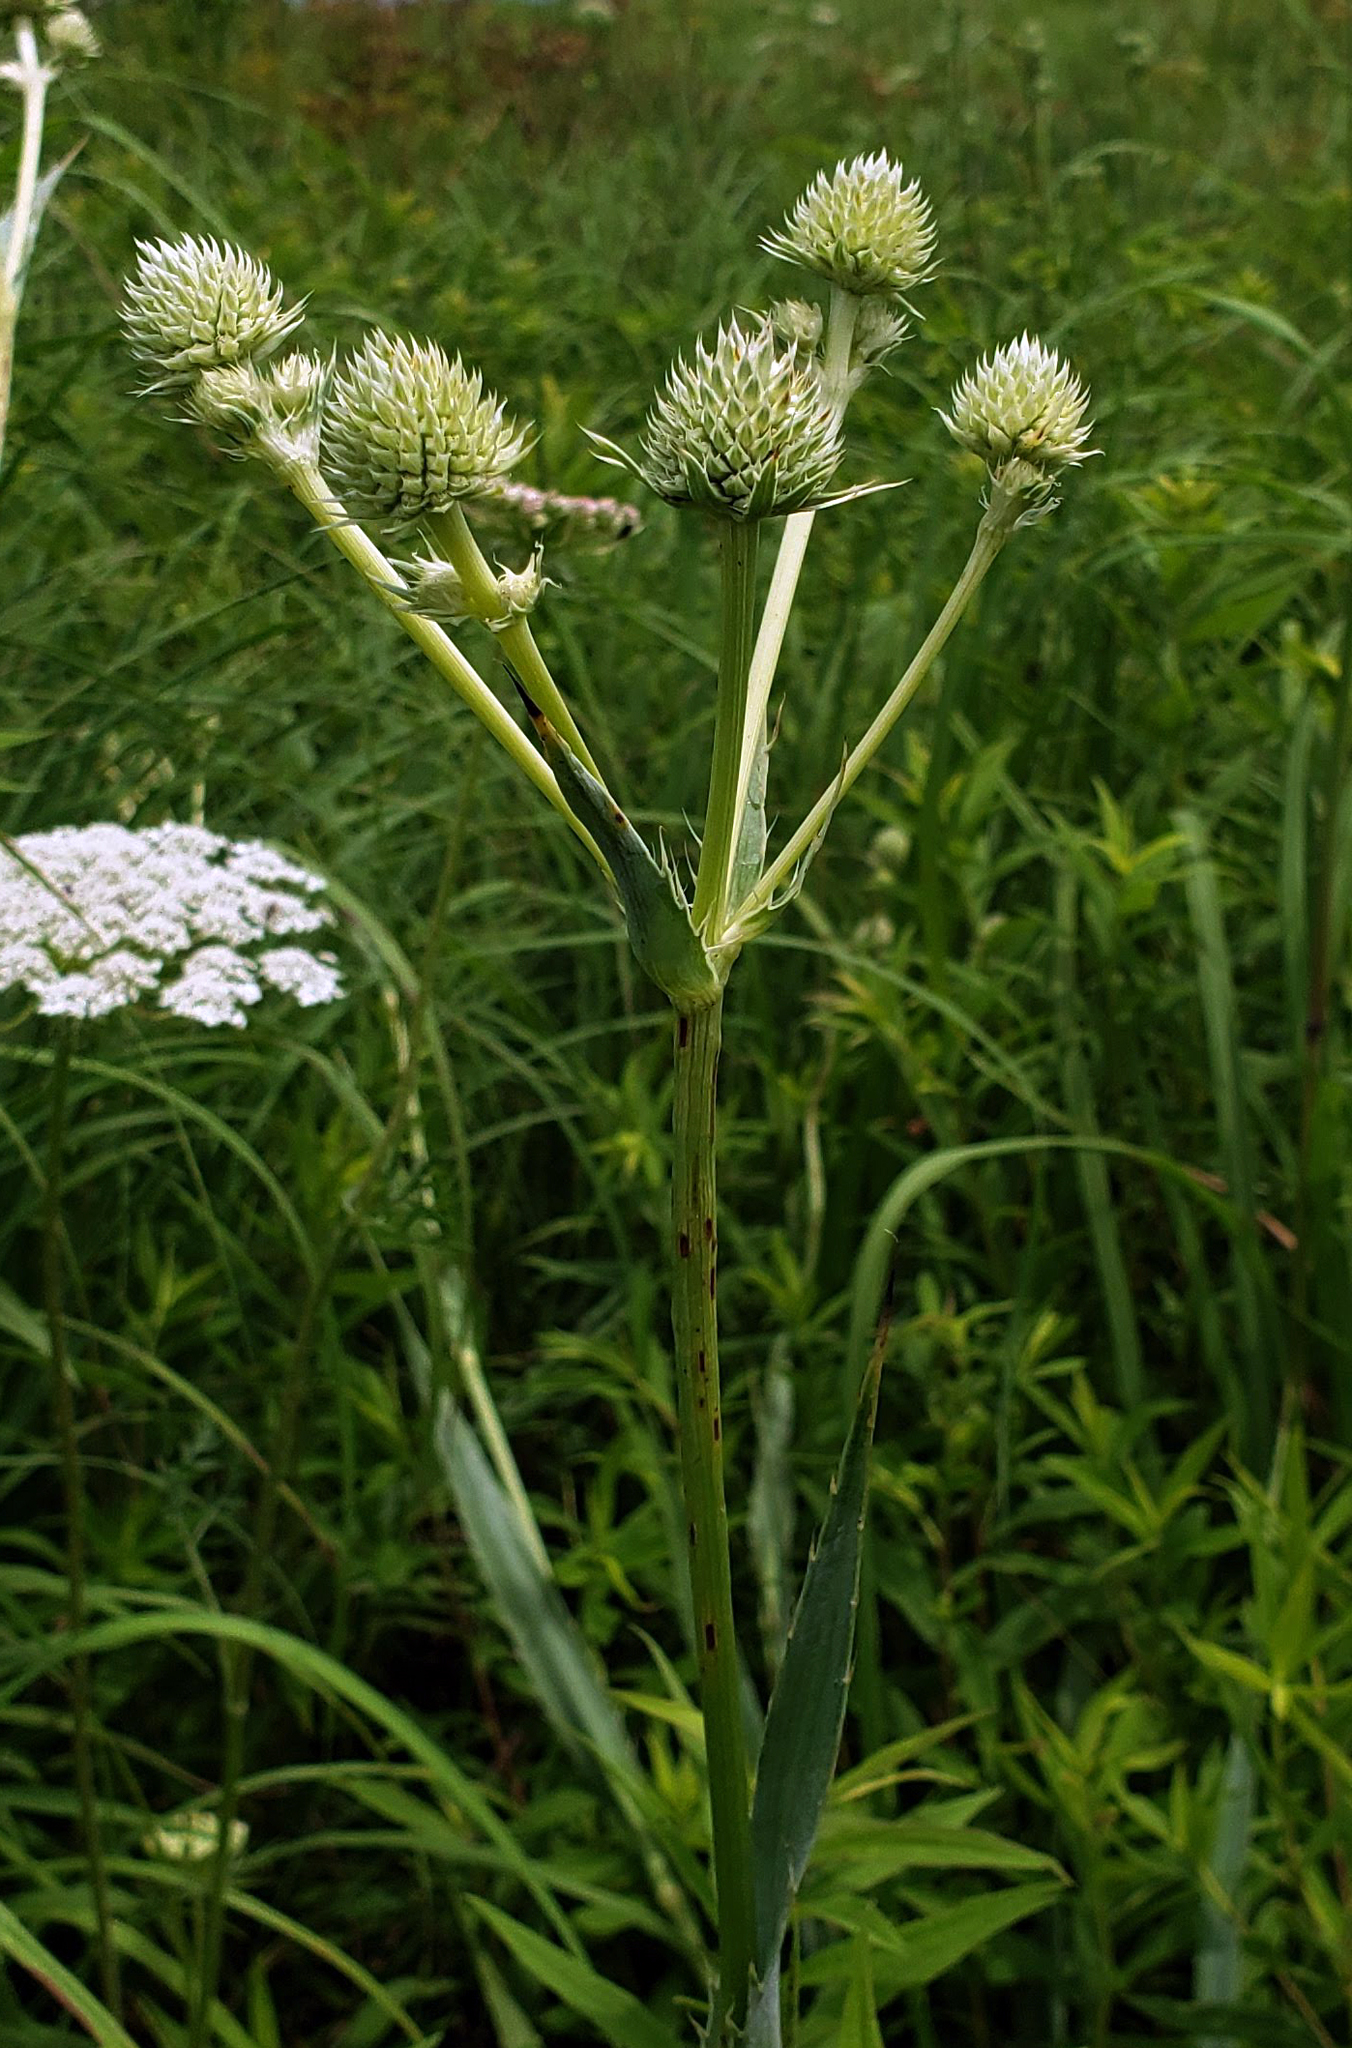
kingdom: Plantae
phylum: Tracheophyta
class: Magnoliopsida
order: Apiales
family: Apiaceae
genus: Eryngium
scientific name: Eryngium yuccifolium
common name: Button eryngo
